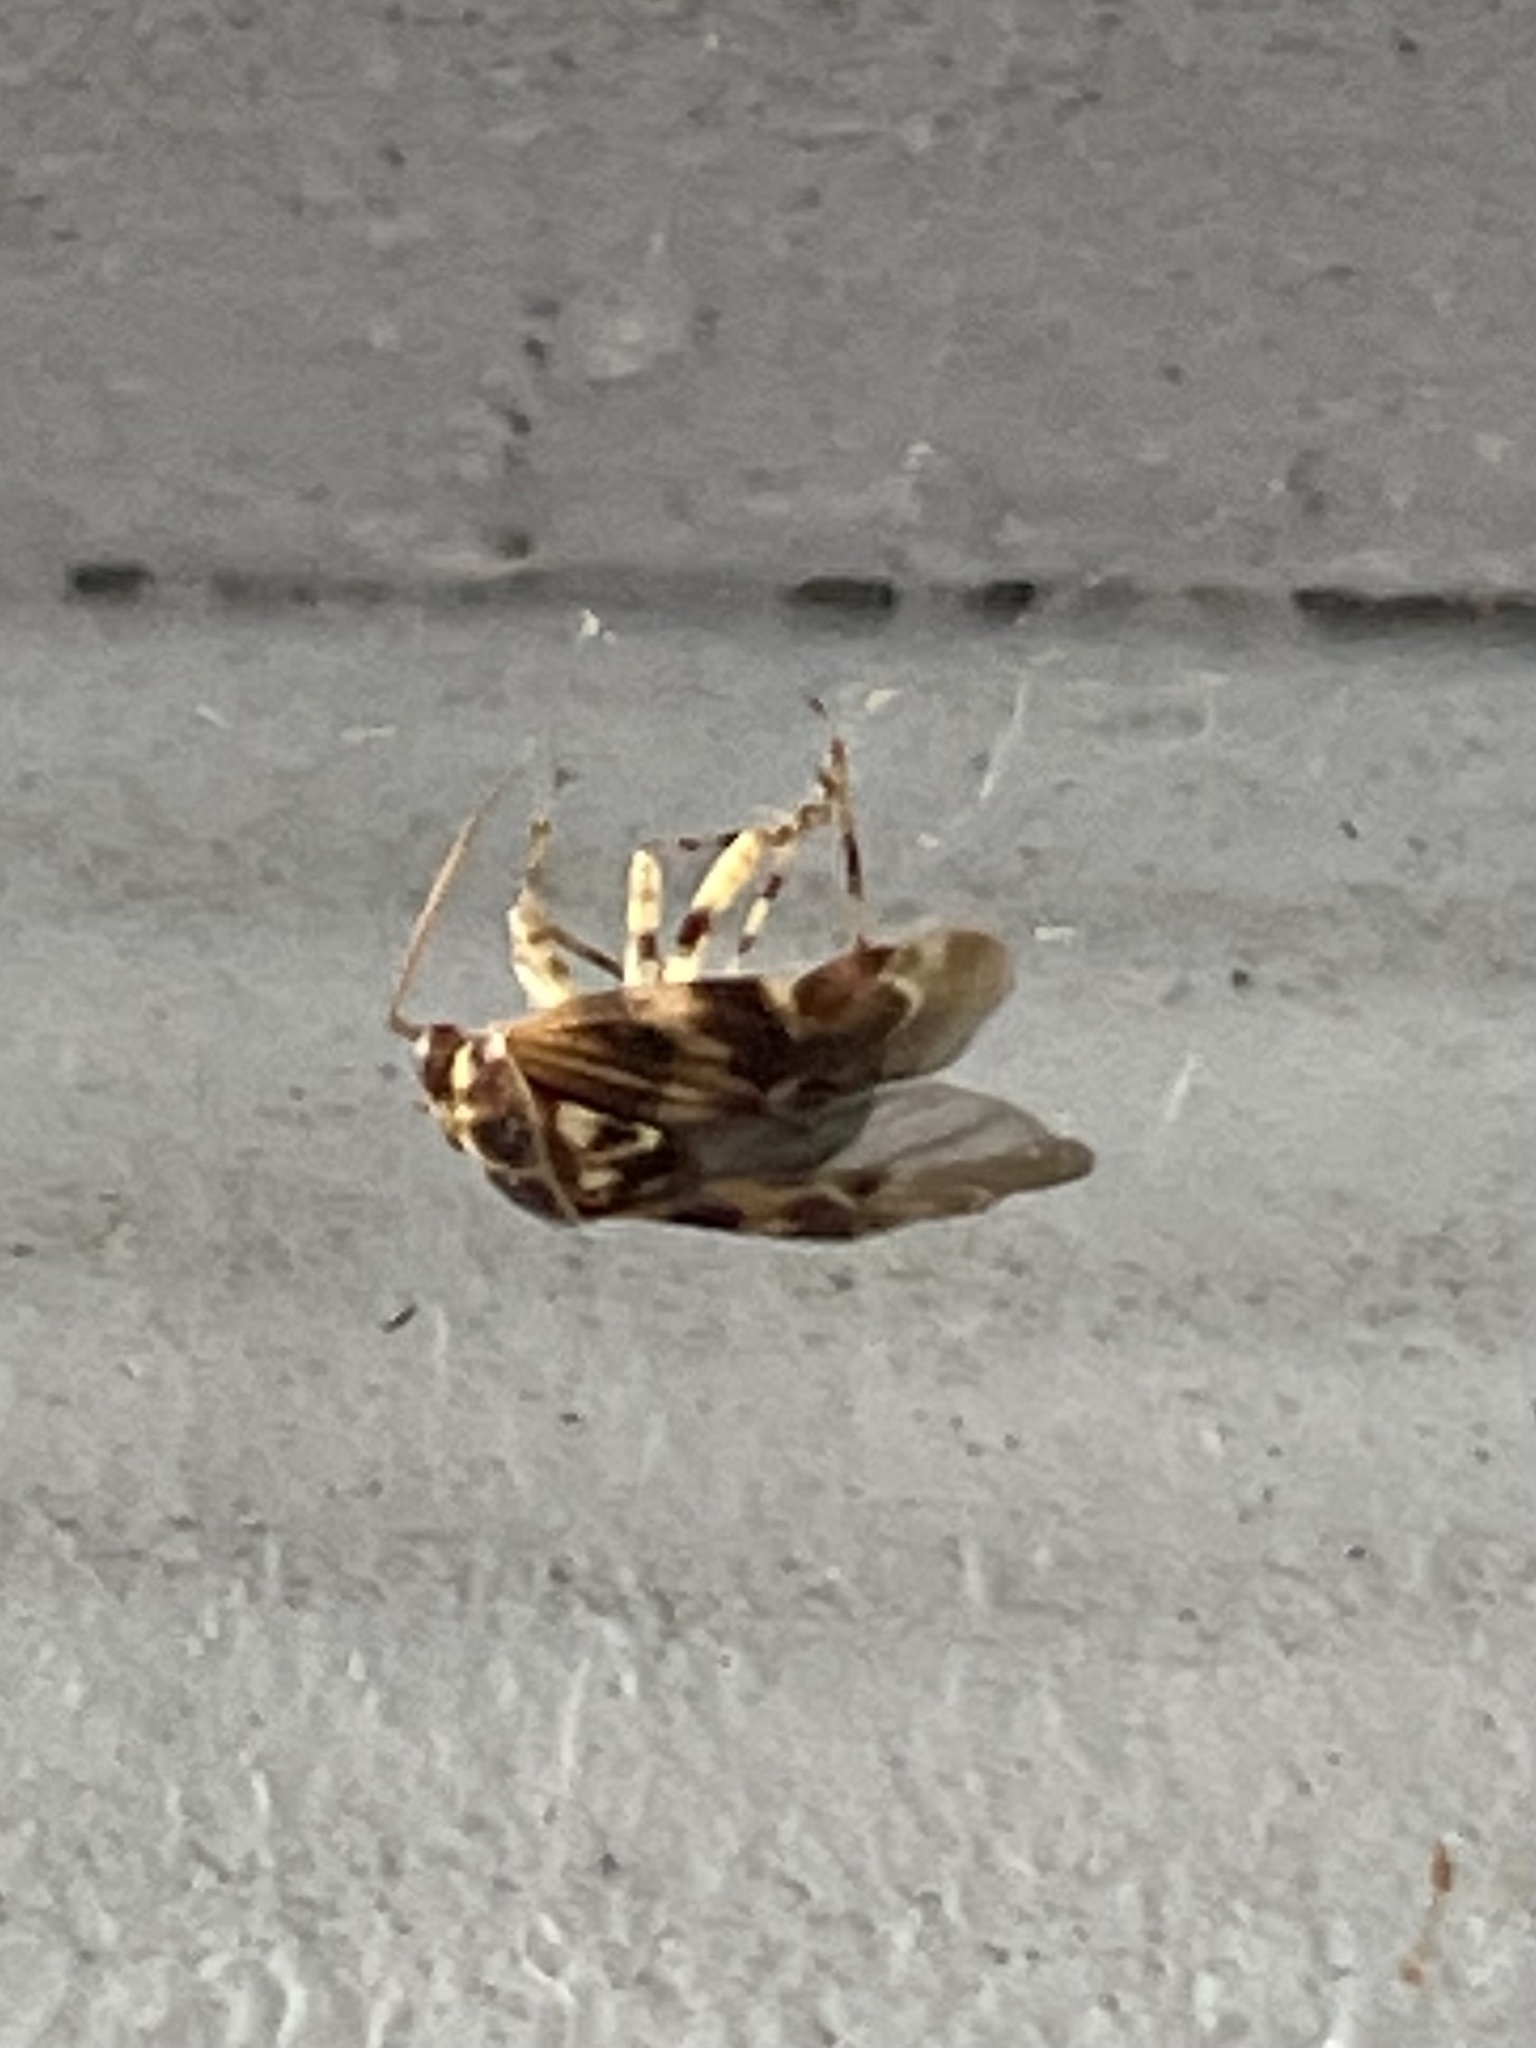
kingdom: Animalia
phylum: Arthropoda
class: Insecta
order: Hemiptera
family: Miridae
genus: Tropidosteptes
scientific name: Tropidosteptes quercicola
